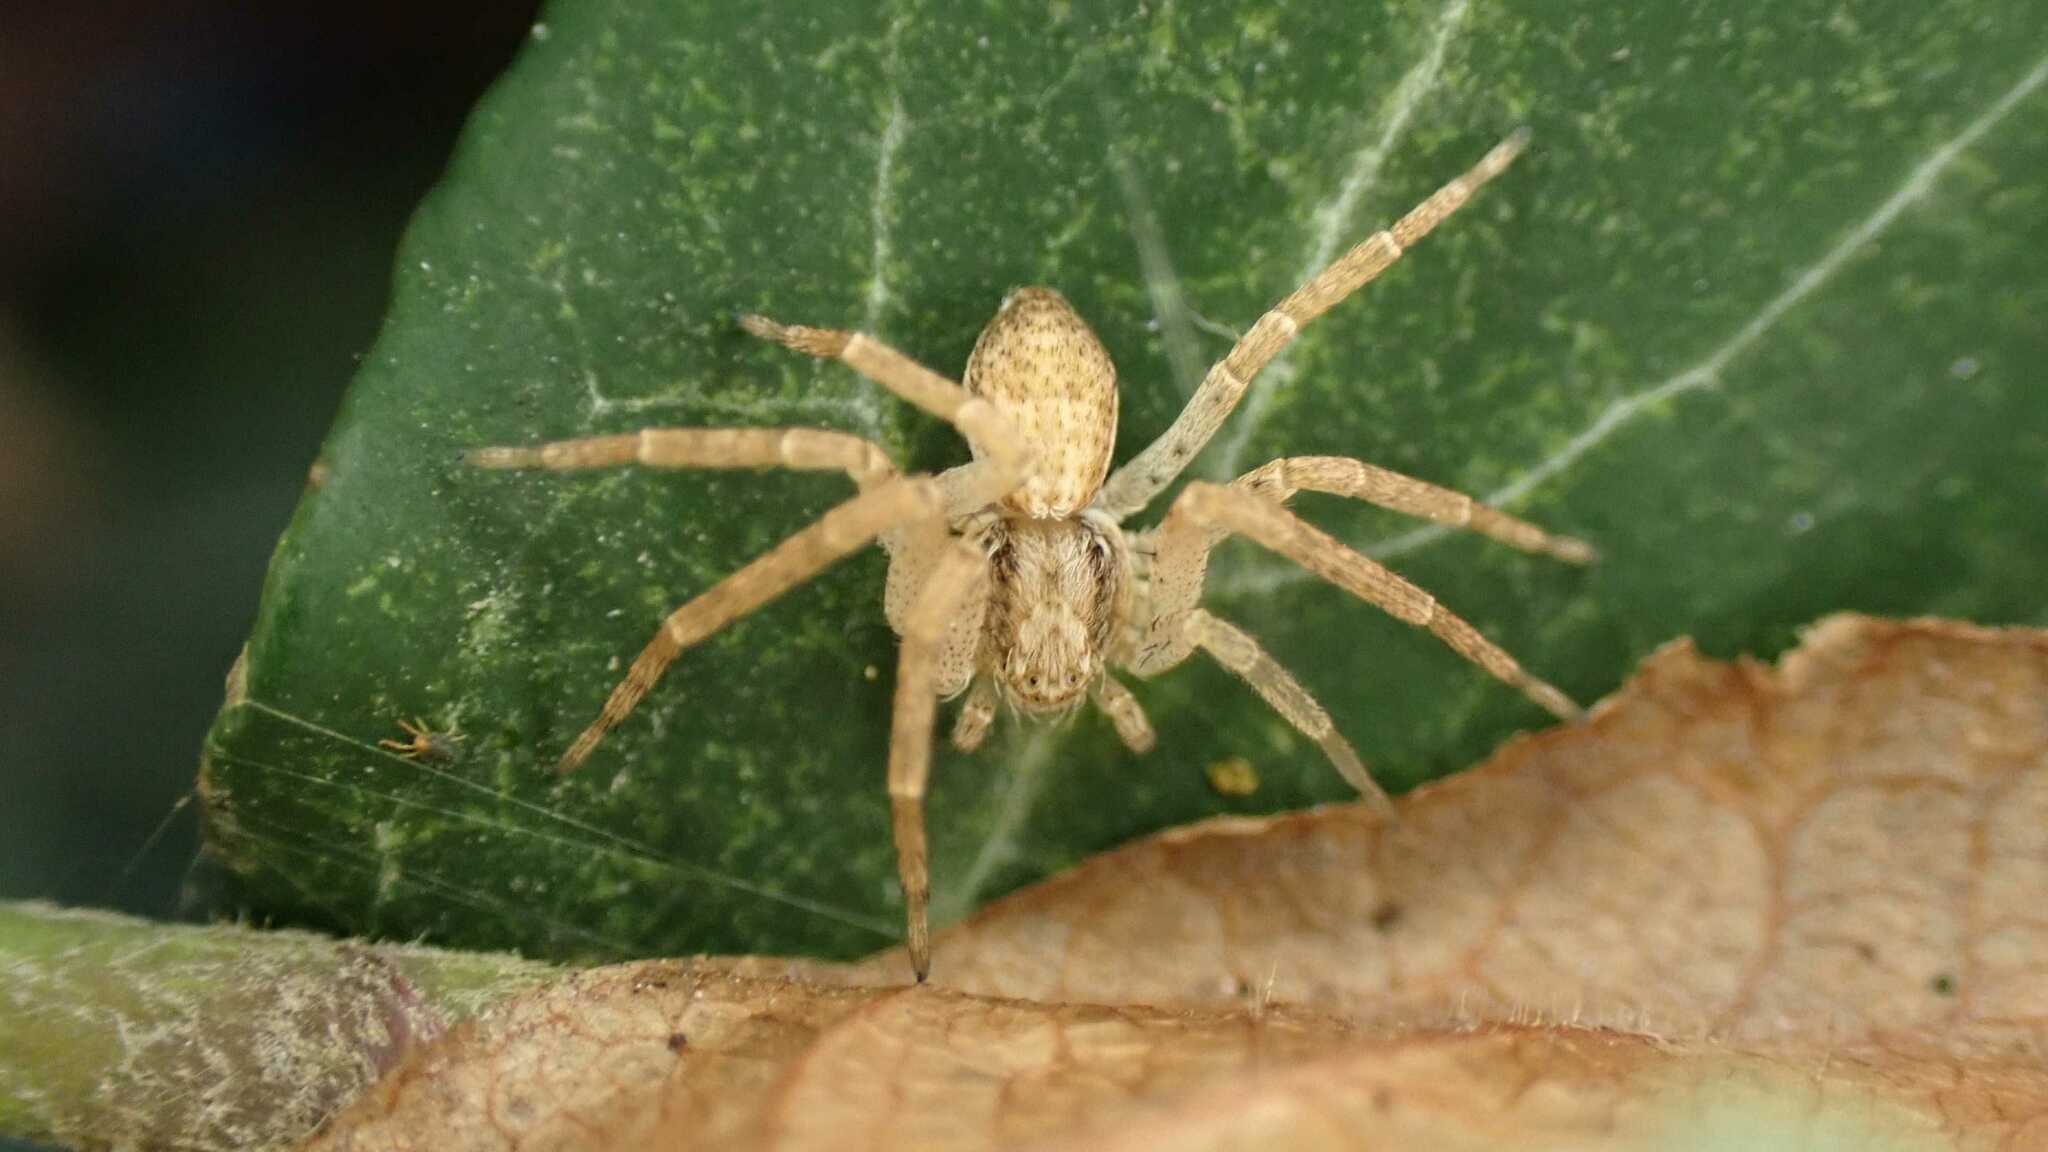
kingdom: Animalia
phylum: Arthropoda
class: Arachnida
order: Araneae
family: Philodromidae
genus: Philodromus
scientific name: Philodromus dispar
